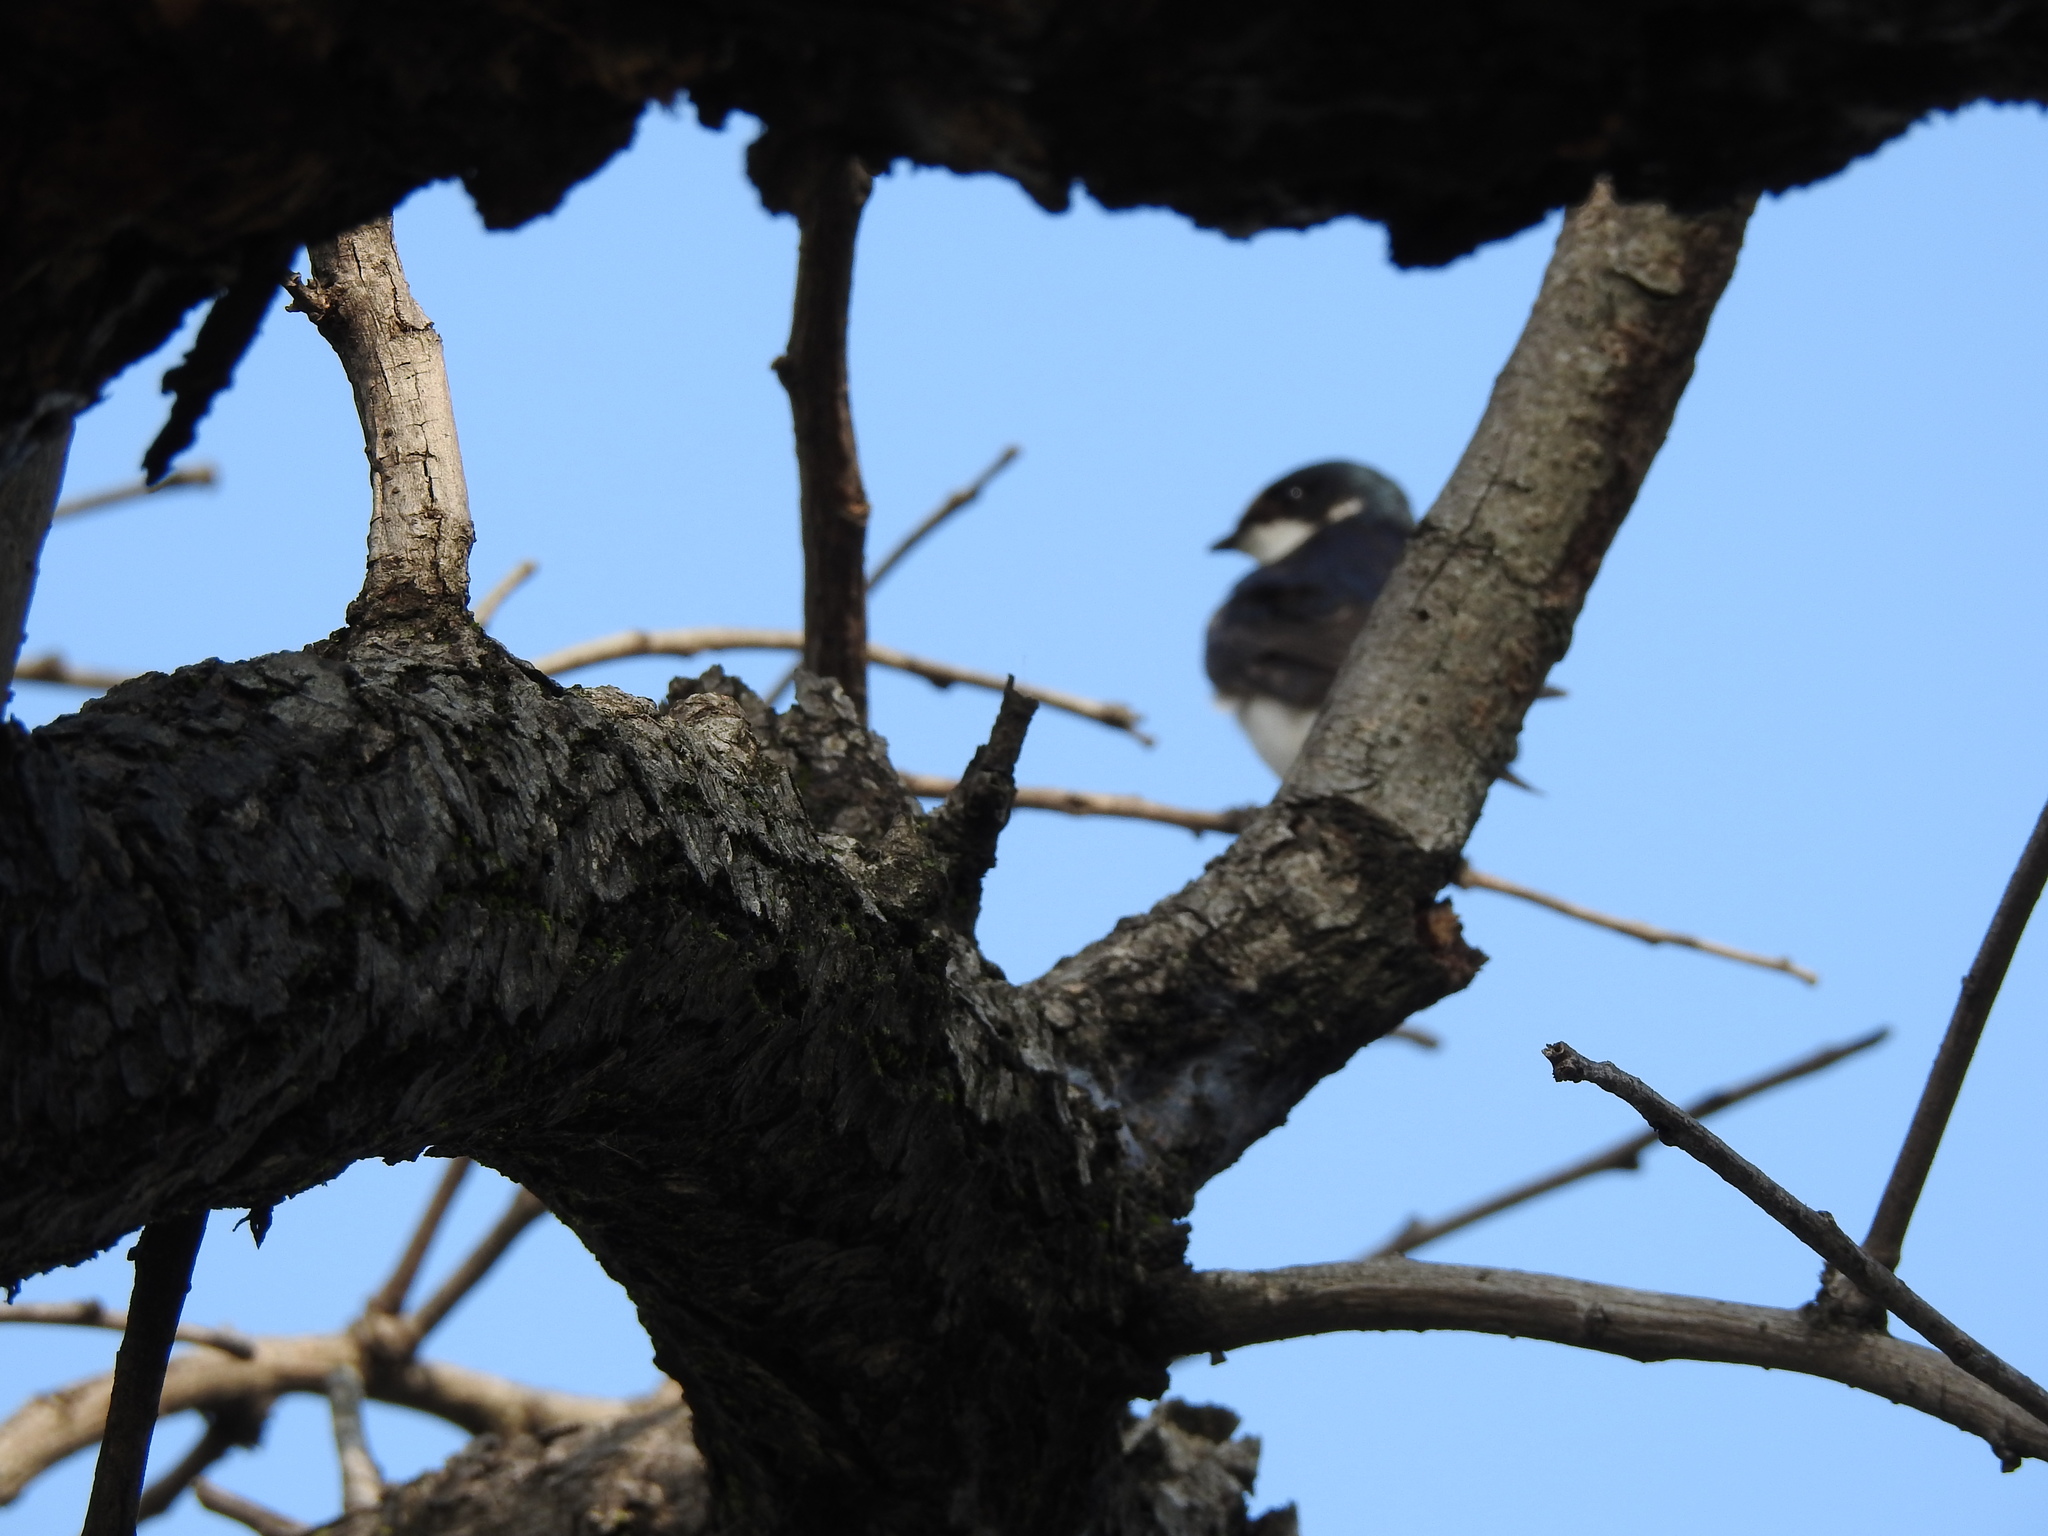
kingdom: Animalia
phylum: Chordata
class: Aves
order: Passeriformes
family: Hirundinidae
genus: Tachycineta
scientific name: Tachycineta leucorrhoa
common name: White-rumped swallow
